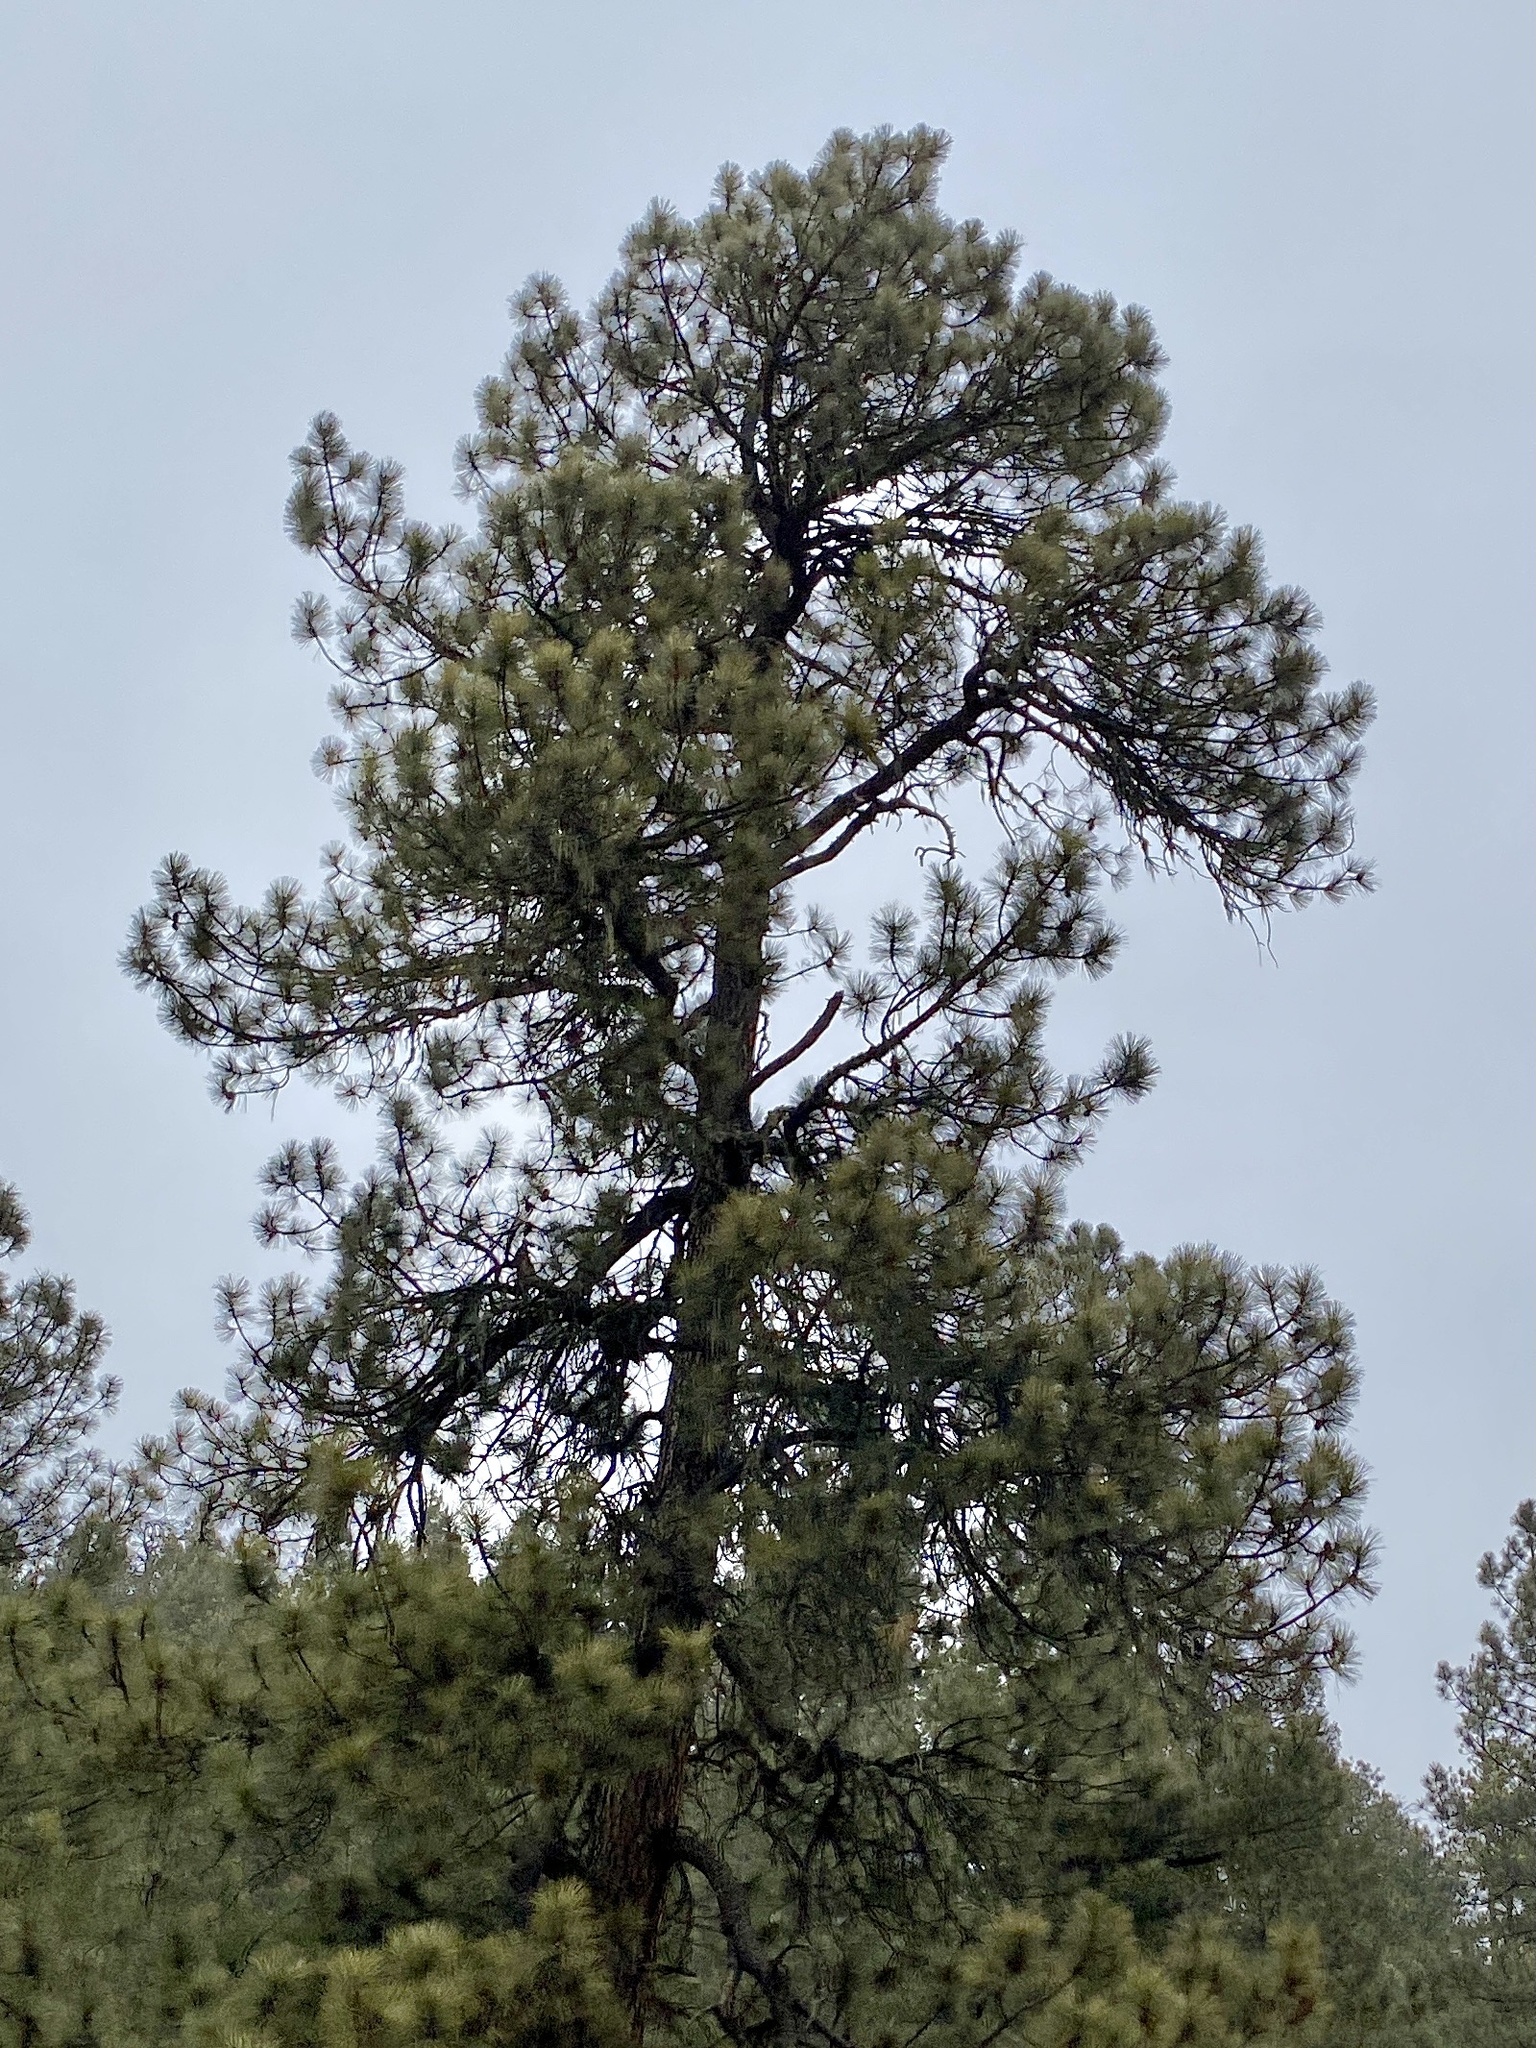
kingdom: Plantae
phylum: Tracheophyta
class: Pinopsida
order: Pinales
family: Pinaceae
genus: Pinus
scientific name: Pinus ponderosa
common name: Western yellow-pine
